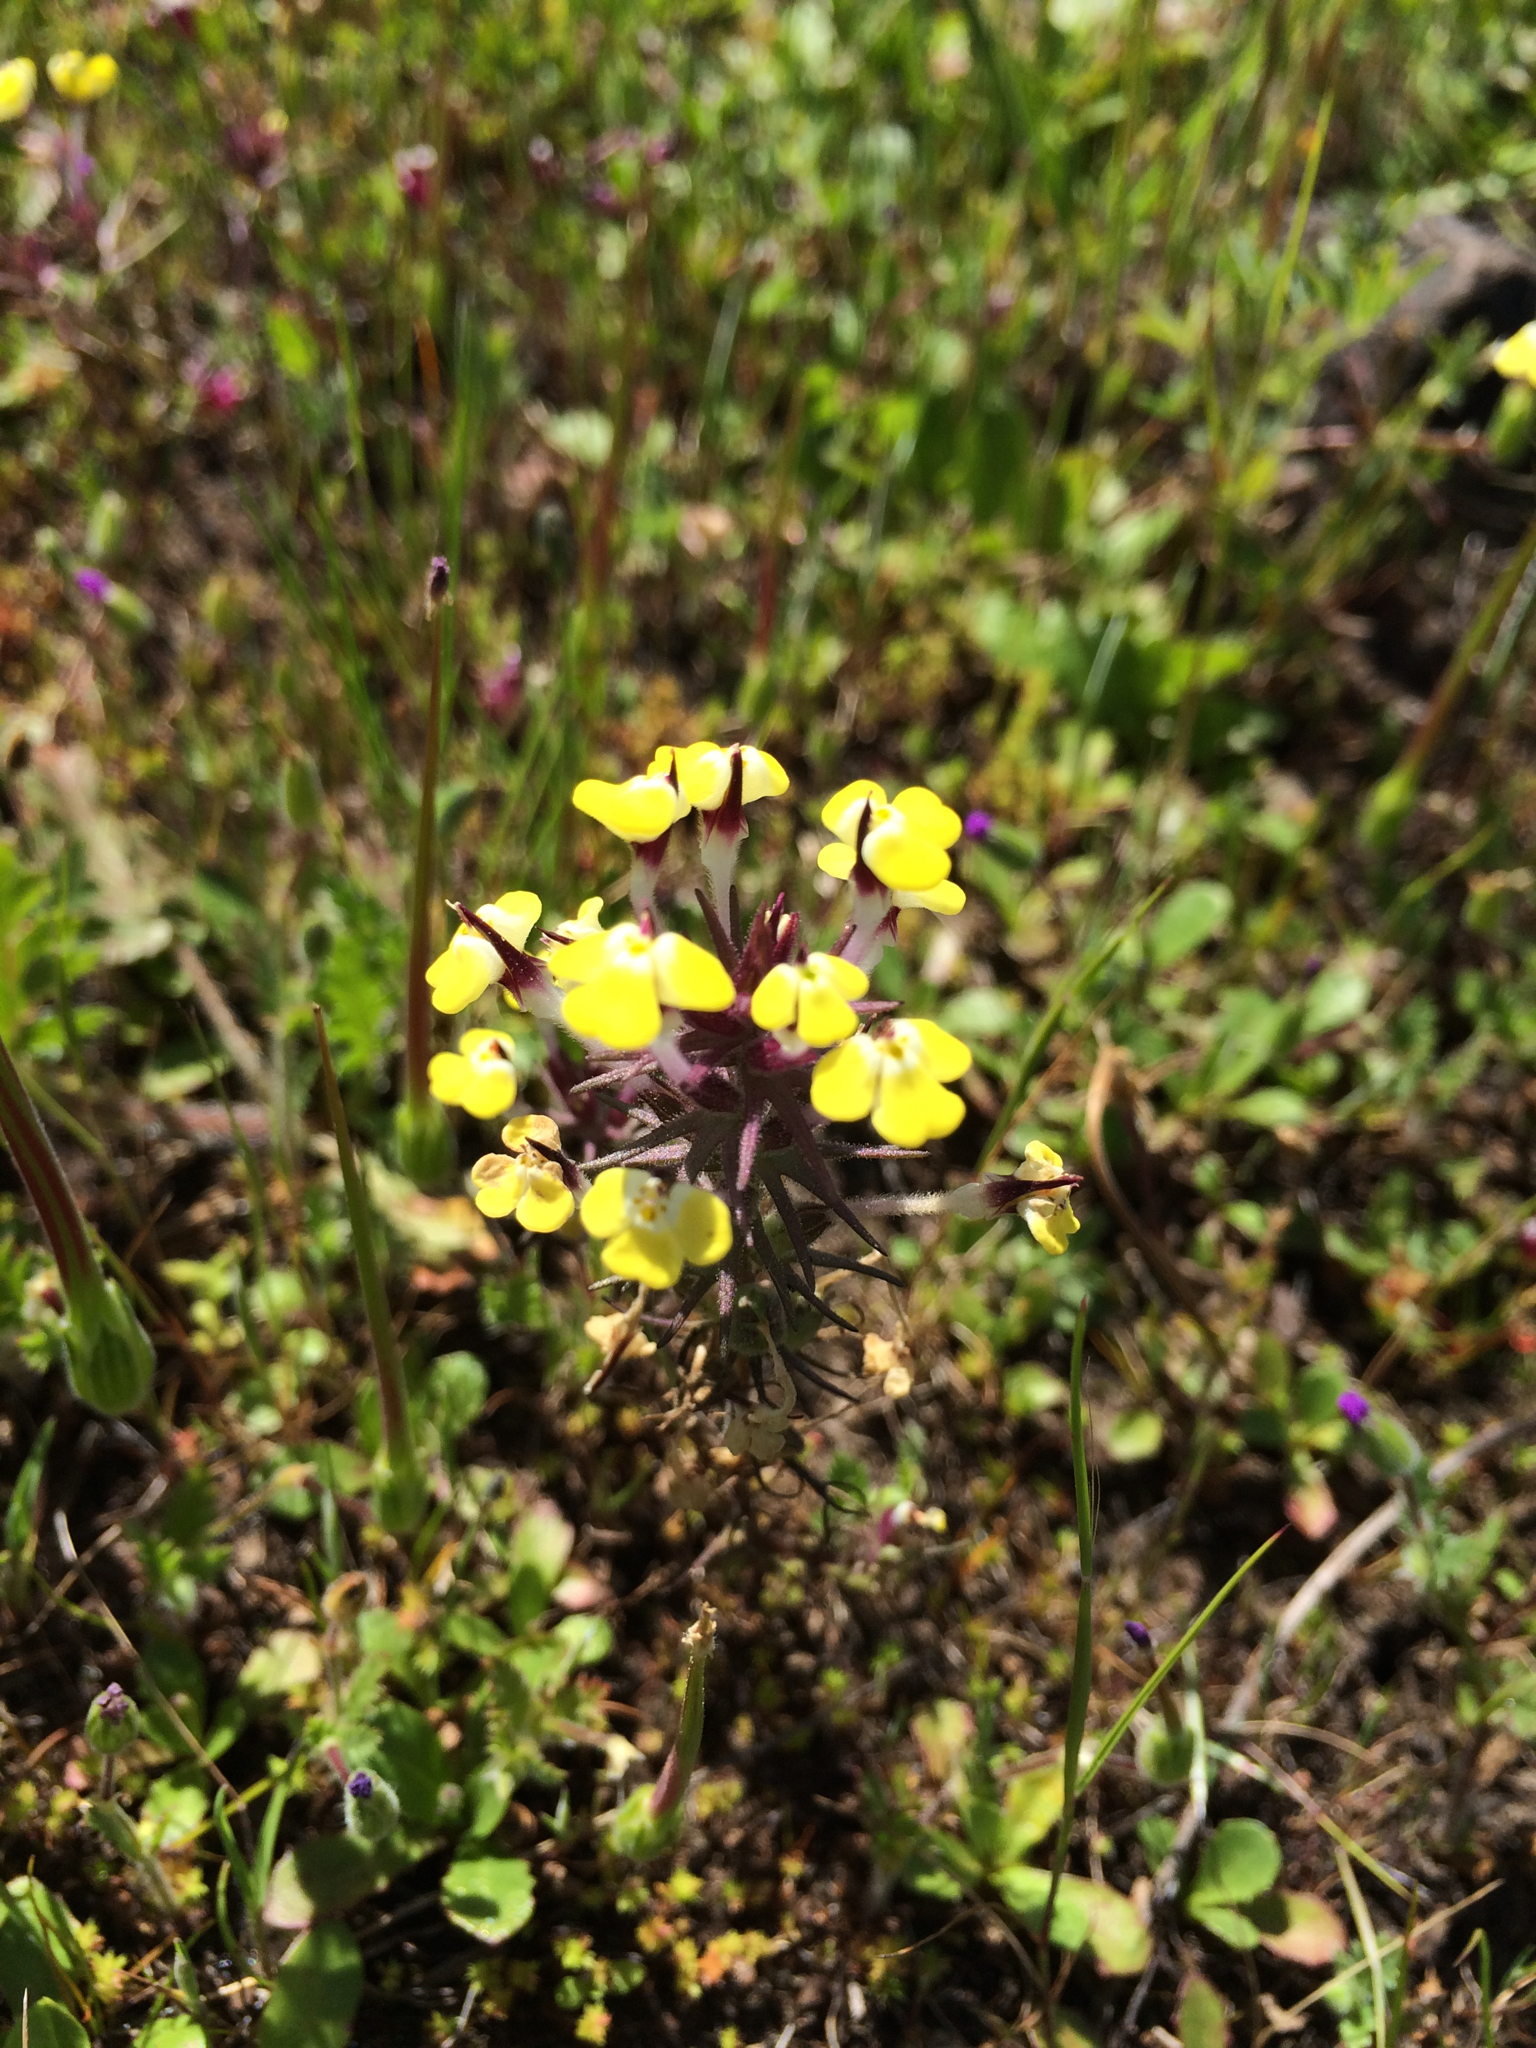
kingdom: Plantae
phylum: Tracheophyta
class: Magnoliopsida
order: Lamiales
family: Orobanchaceae
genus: Triphysaria
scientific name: Triphysaria eriantha
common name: Johnny-tuck
